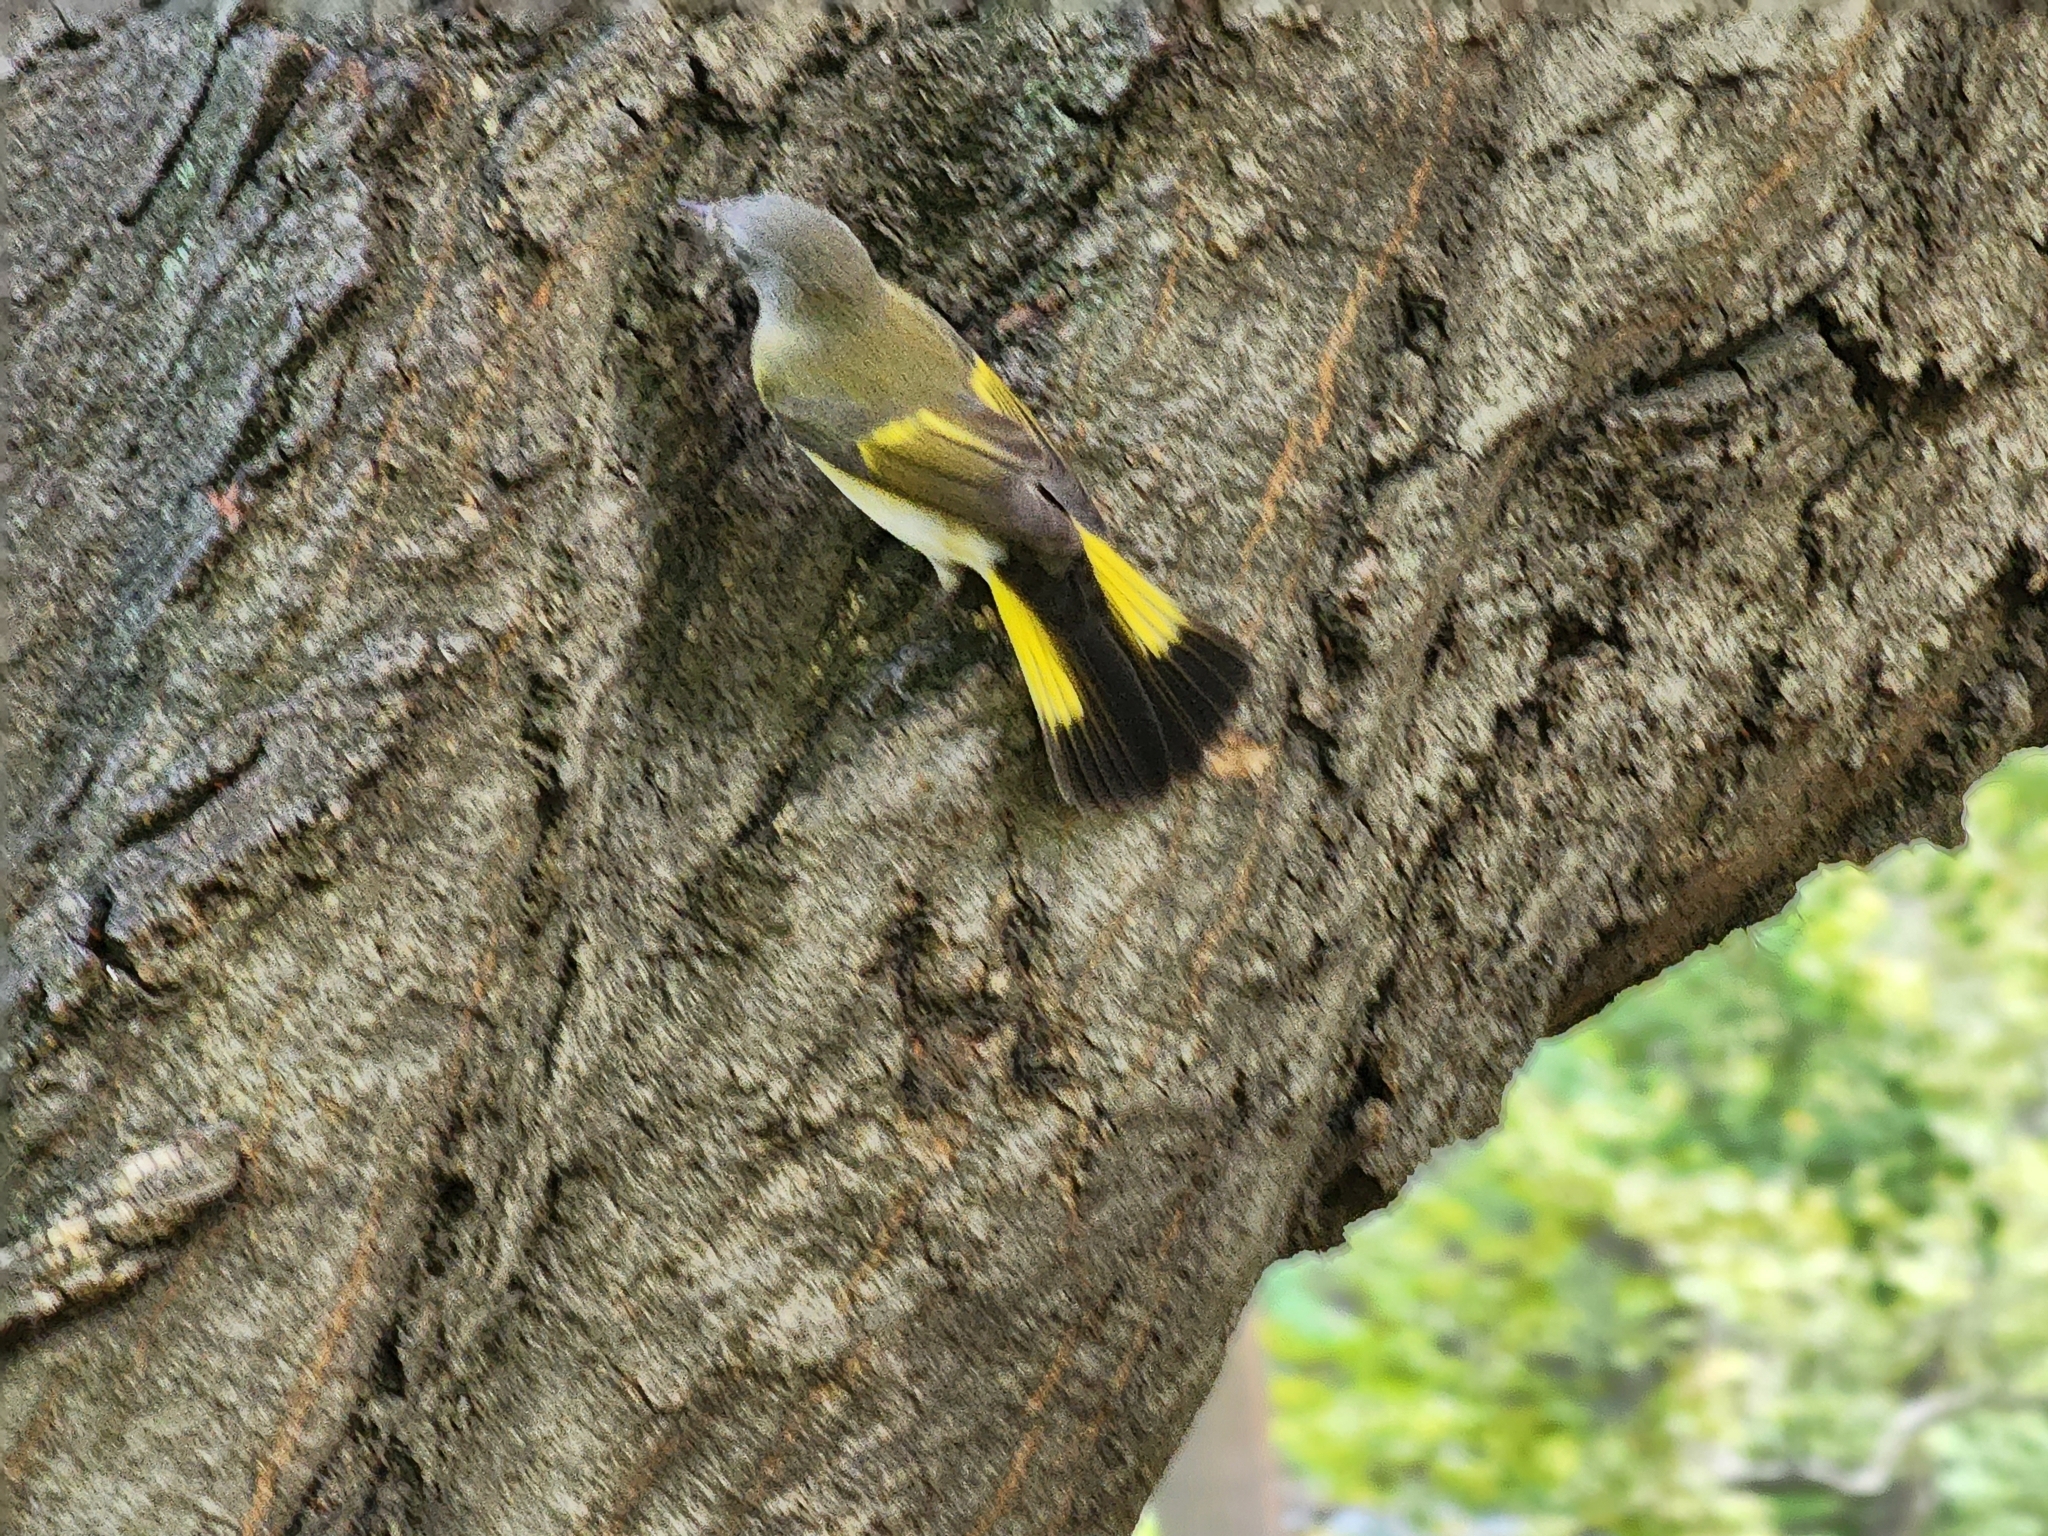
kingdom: Animalia
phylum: Chordata
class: Aves
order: Passeriformes
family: Parulidae
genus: Setophaga
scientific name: Setophaga ruticilla
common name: American redstart
